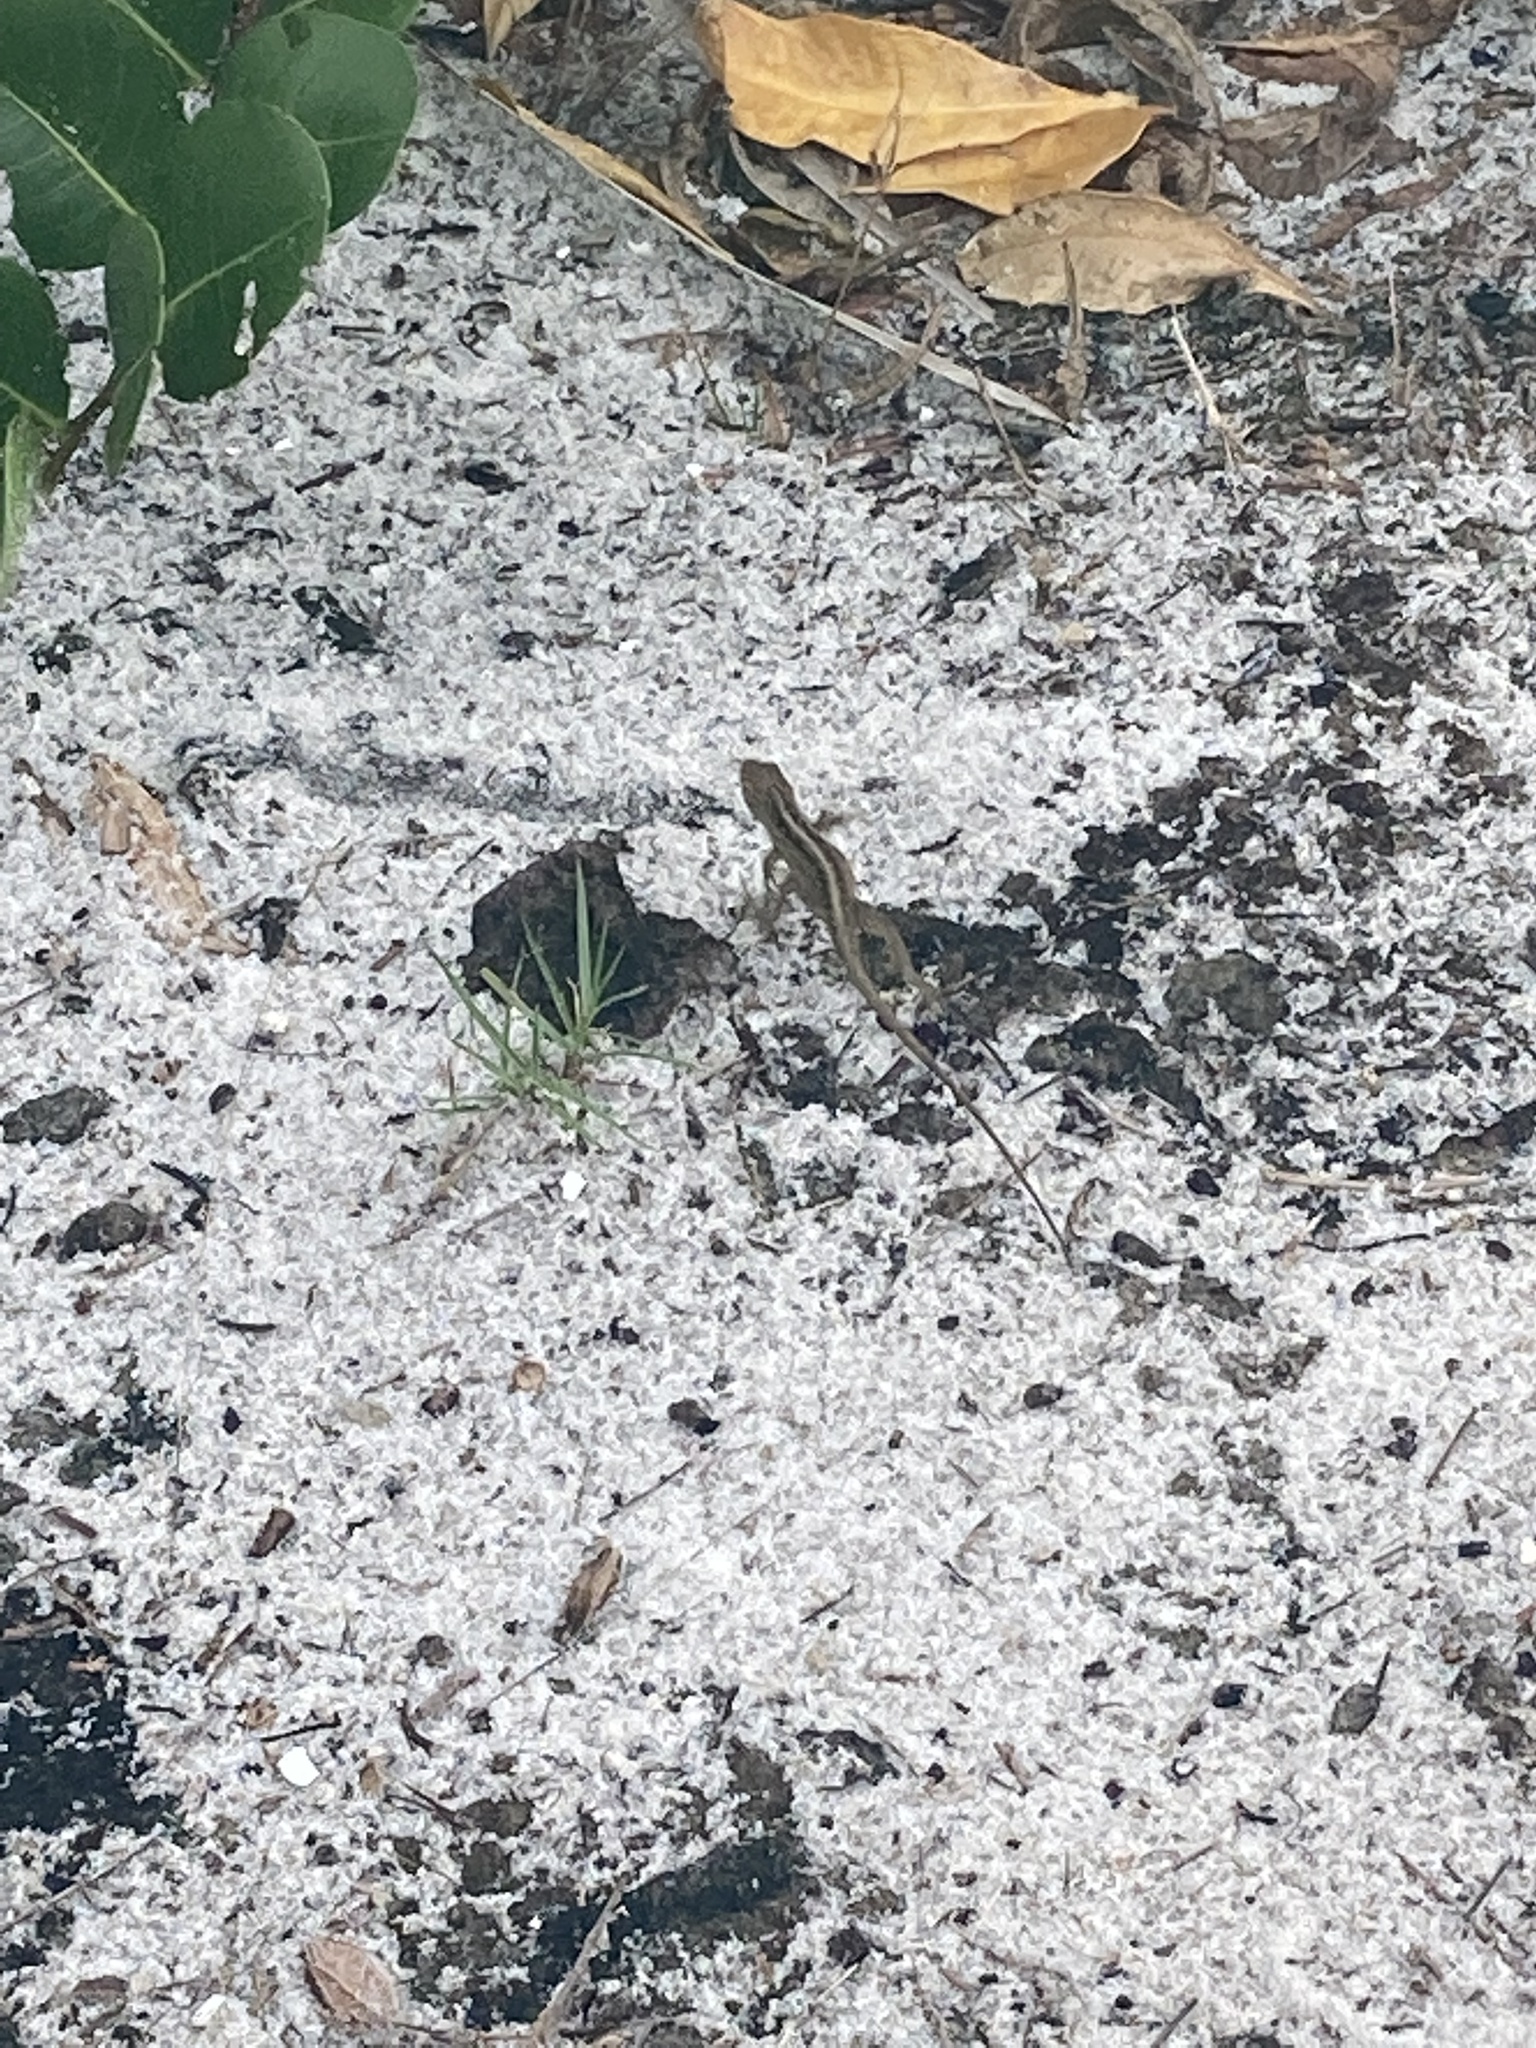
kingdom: Animalia
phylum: Chordata
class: Squamata
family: Dactyloidae
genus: Anolis
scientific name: Anolis sagrei
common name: Brown anole
